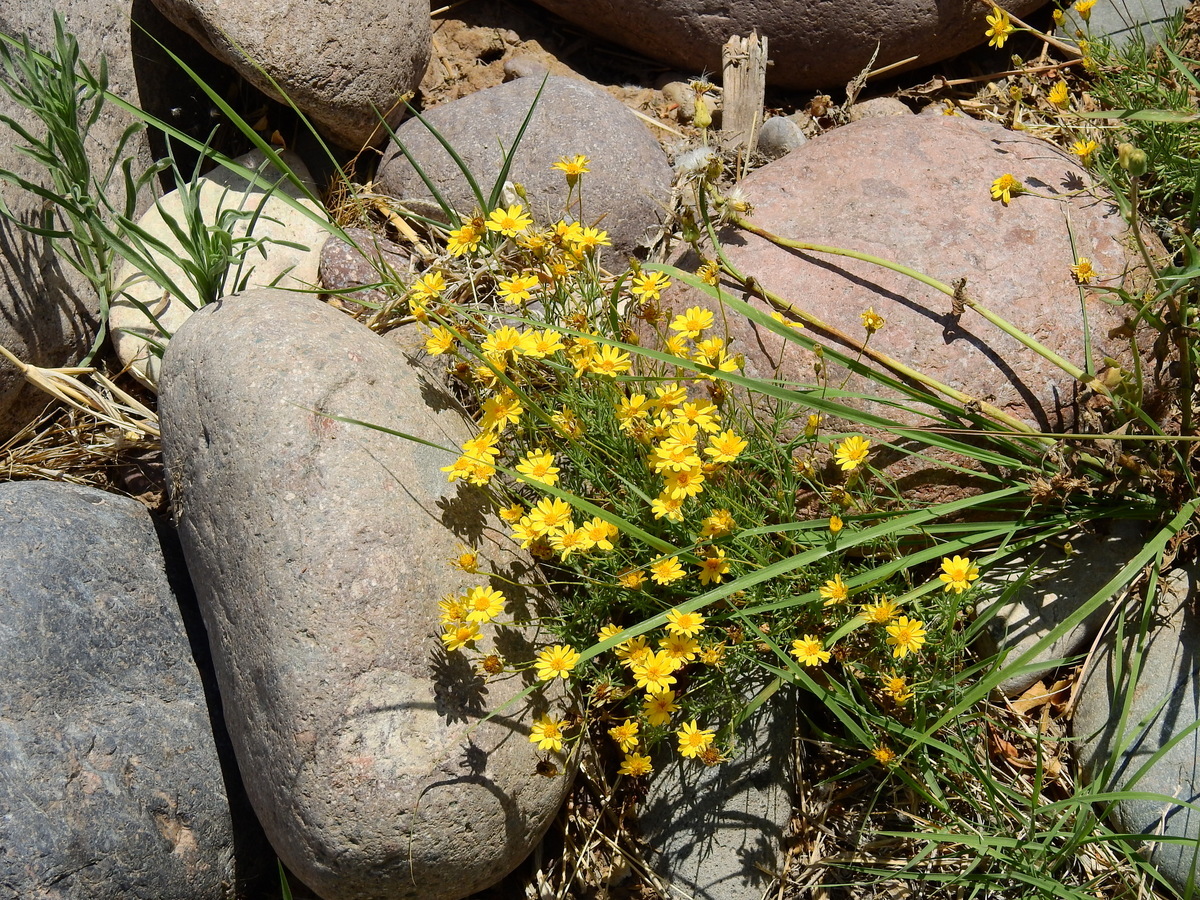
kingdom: Plantae
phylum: Tracheophyta
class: Magnoliopsida
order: Asterales
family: Asteraceae
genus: Thymophylla
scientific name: Thymophylla pentachaeta
